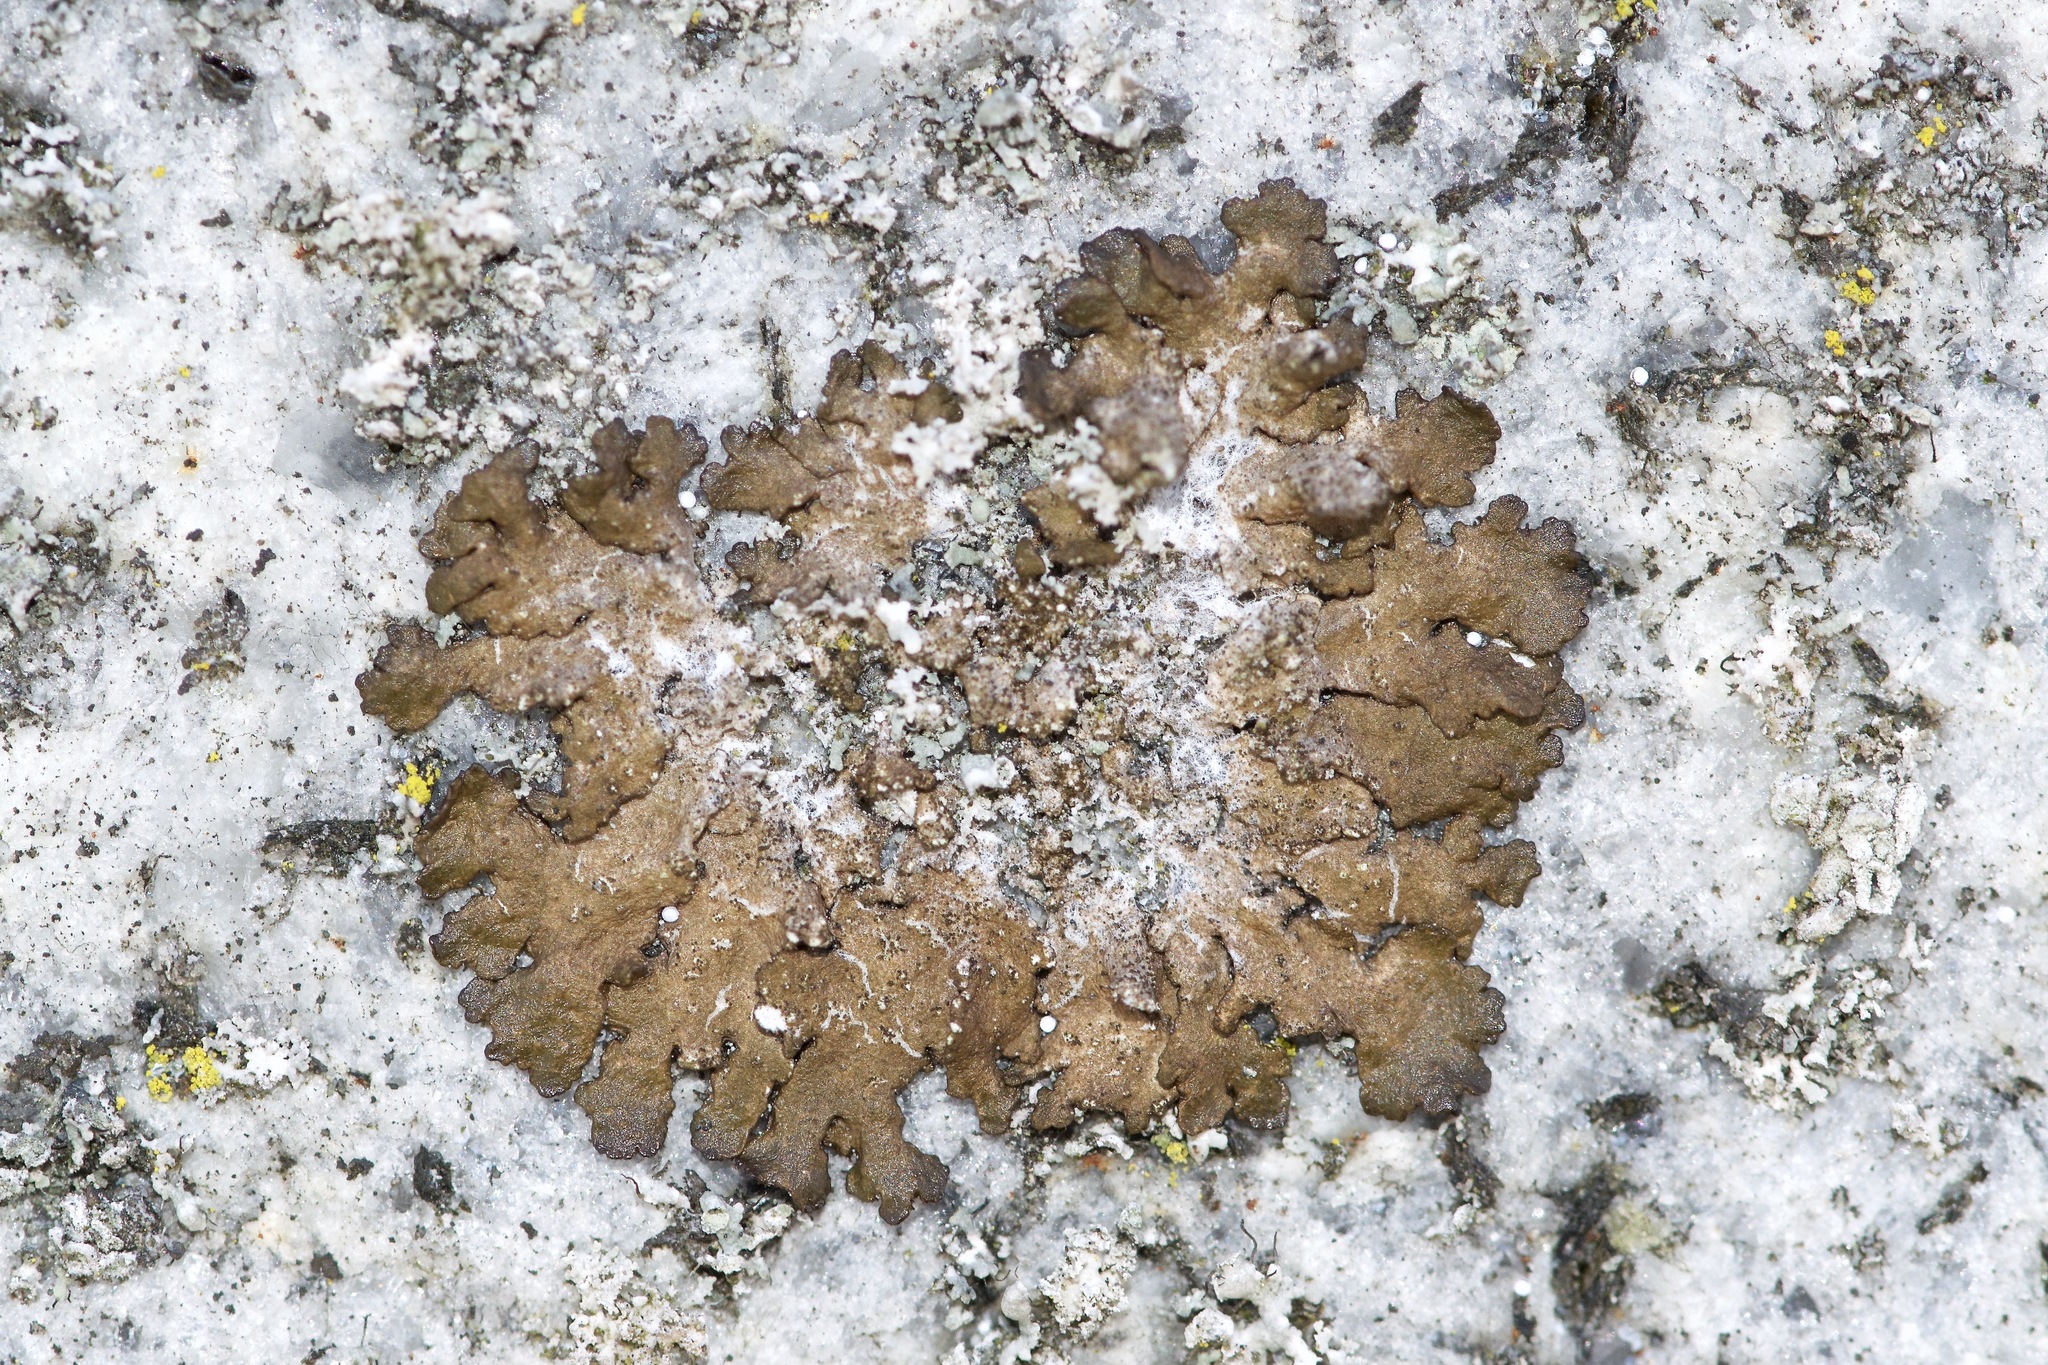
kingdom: Fungi
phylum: Ascomycota
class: Lecanoromycetes
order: Lecanorales
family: Parmeliaceae
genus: Melanelixia
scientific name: Melanelixia subaurifera
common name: Abraded camouflage lichen
